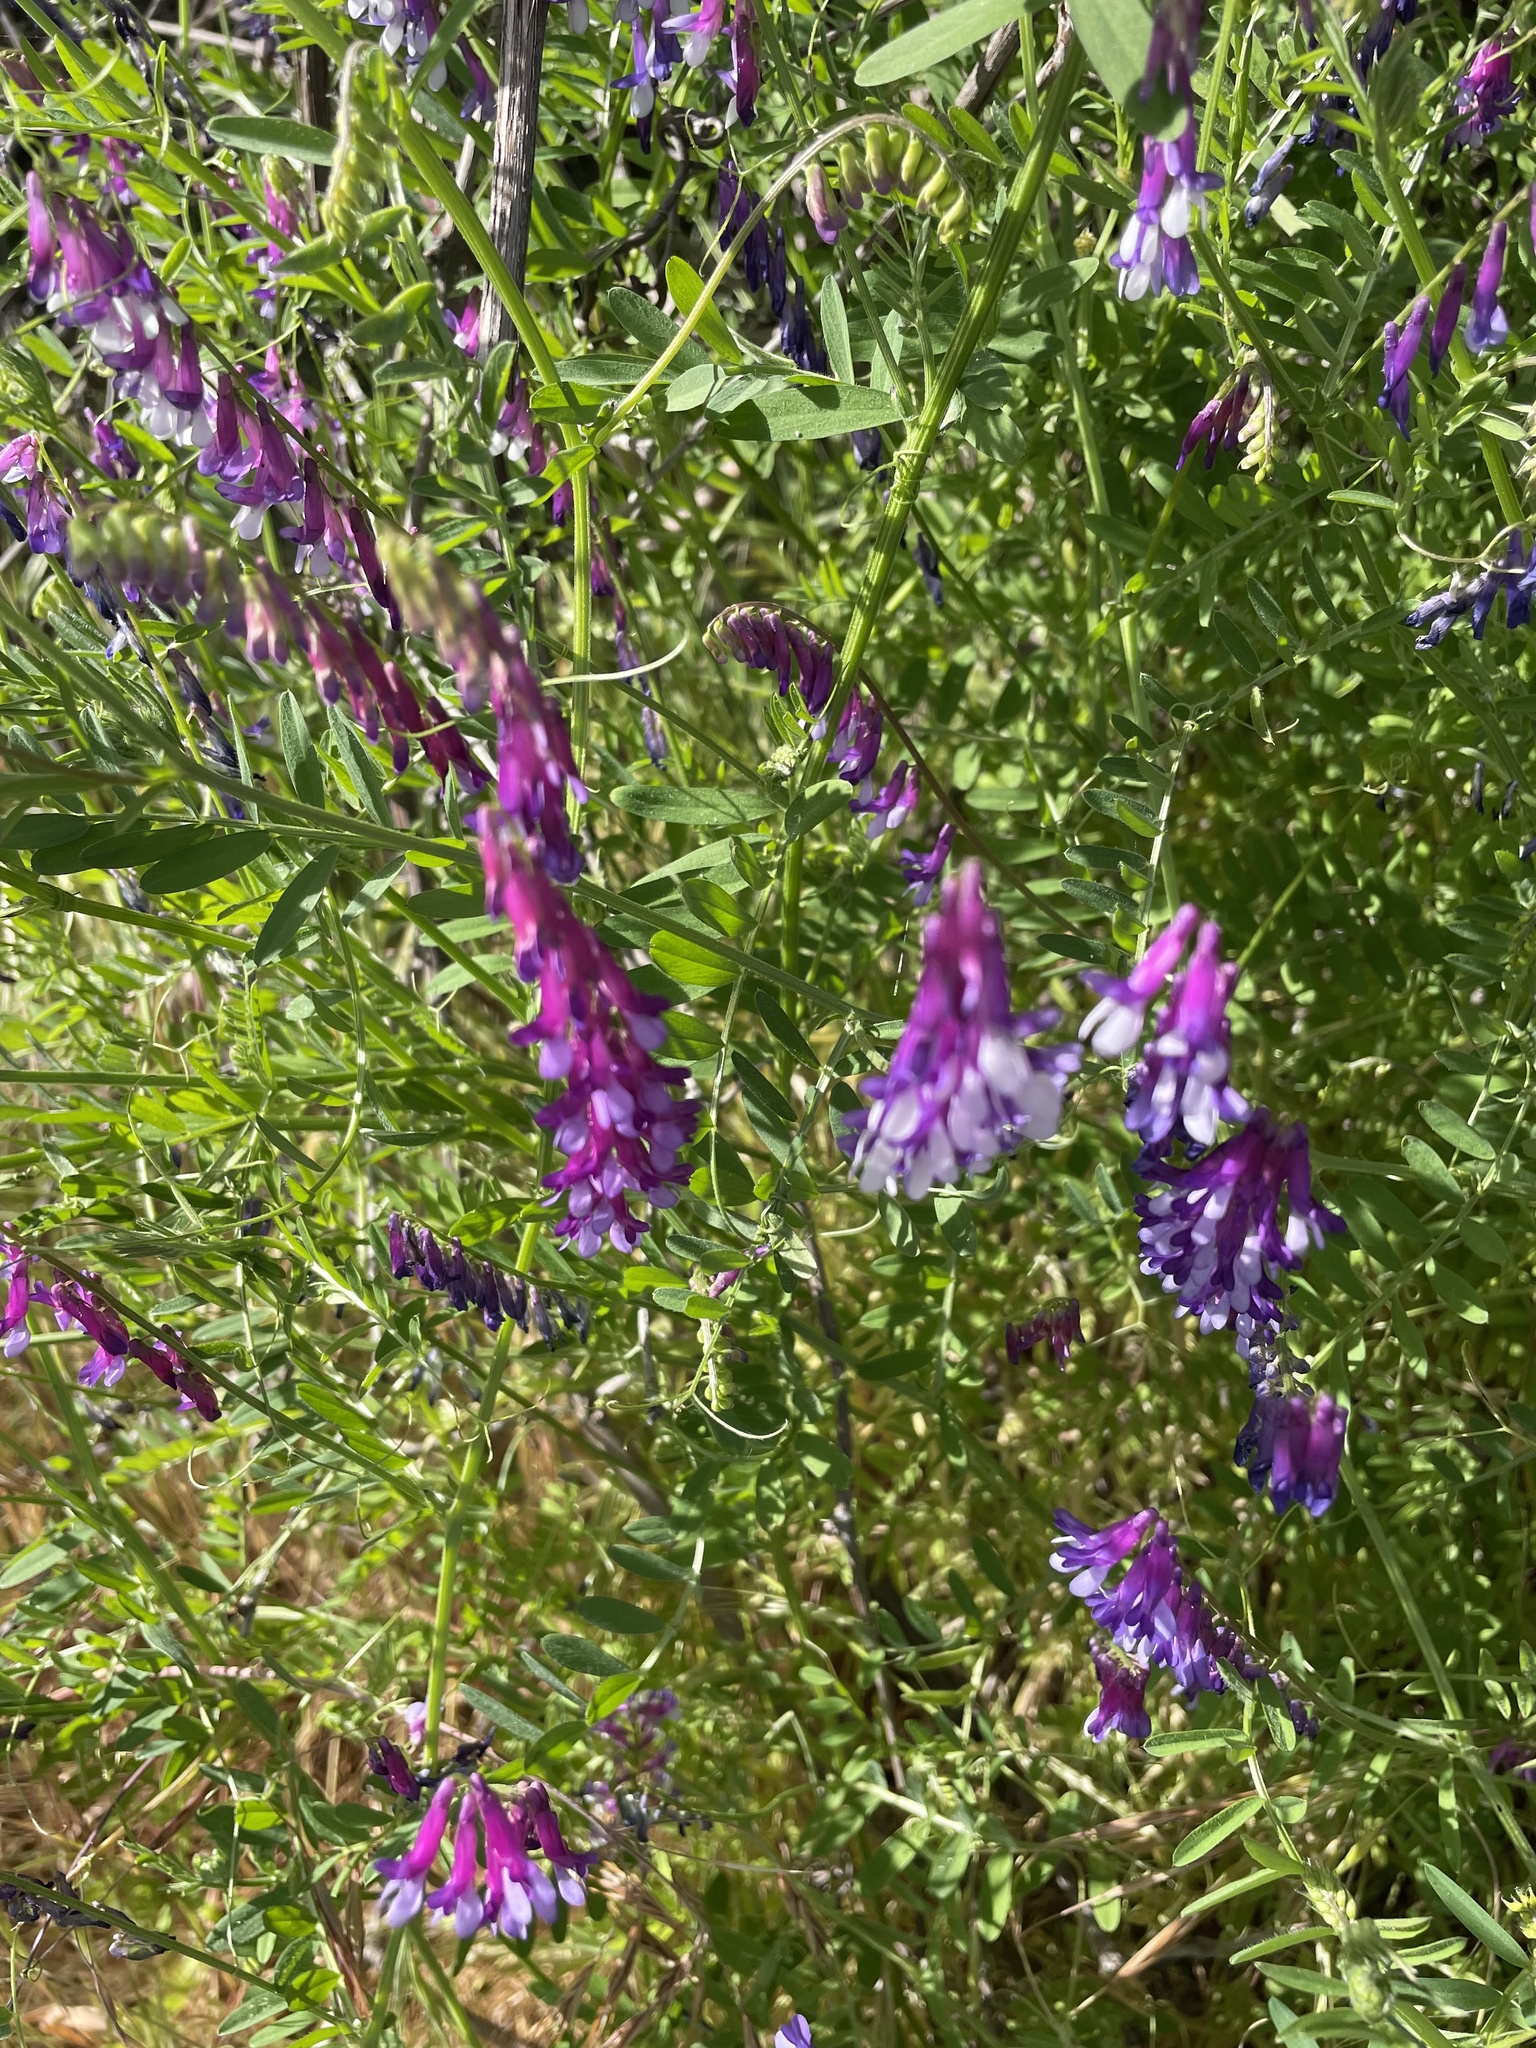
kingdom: Plantae
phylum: Tracheophyta
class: Magnoliopsida
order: Fabales
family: Fabaceae
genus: Vicia
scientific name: Vicia villosa
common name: Fodder vetch
